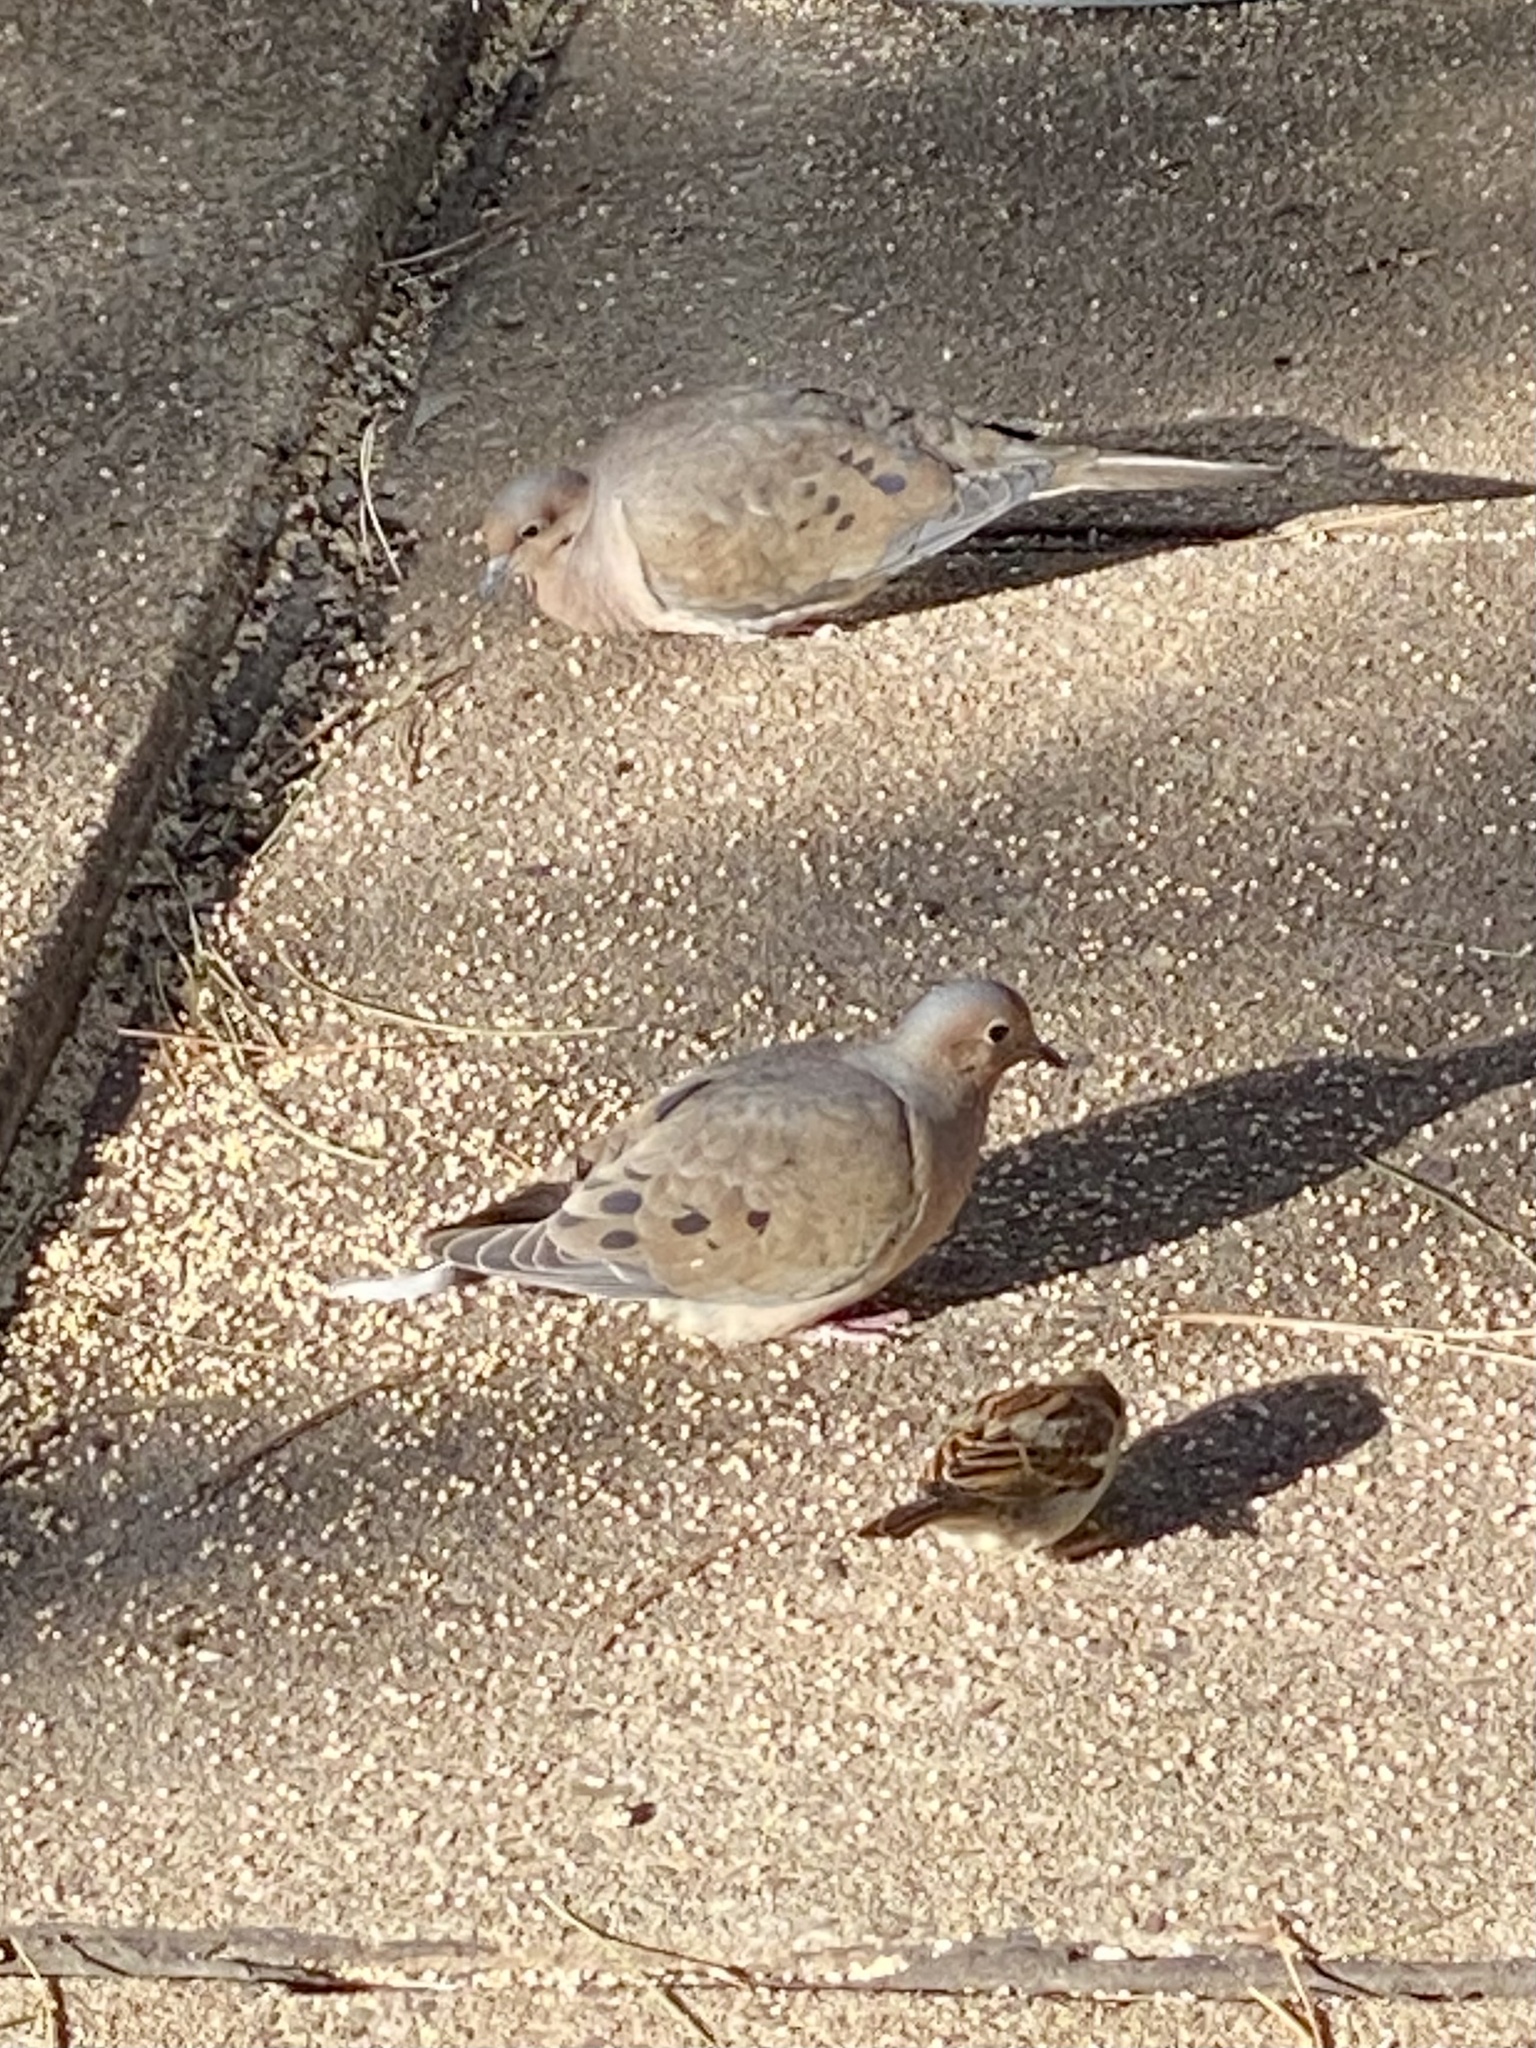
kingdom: Animalia
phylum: Chordata
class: Aves
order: Columbiformes
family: Columbidae
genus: Zenaida
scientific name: Zenaida macroura
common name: Mourning dove
